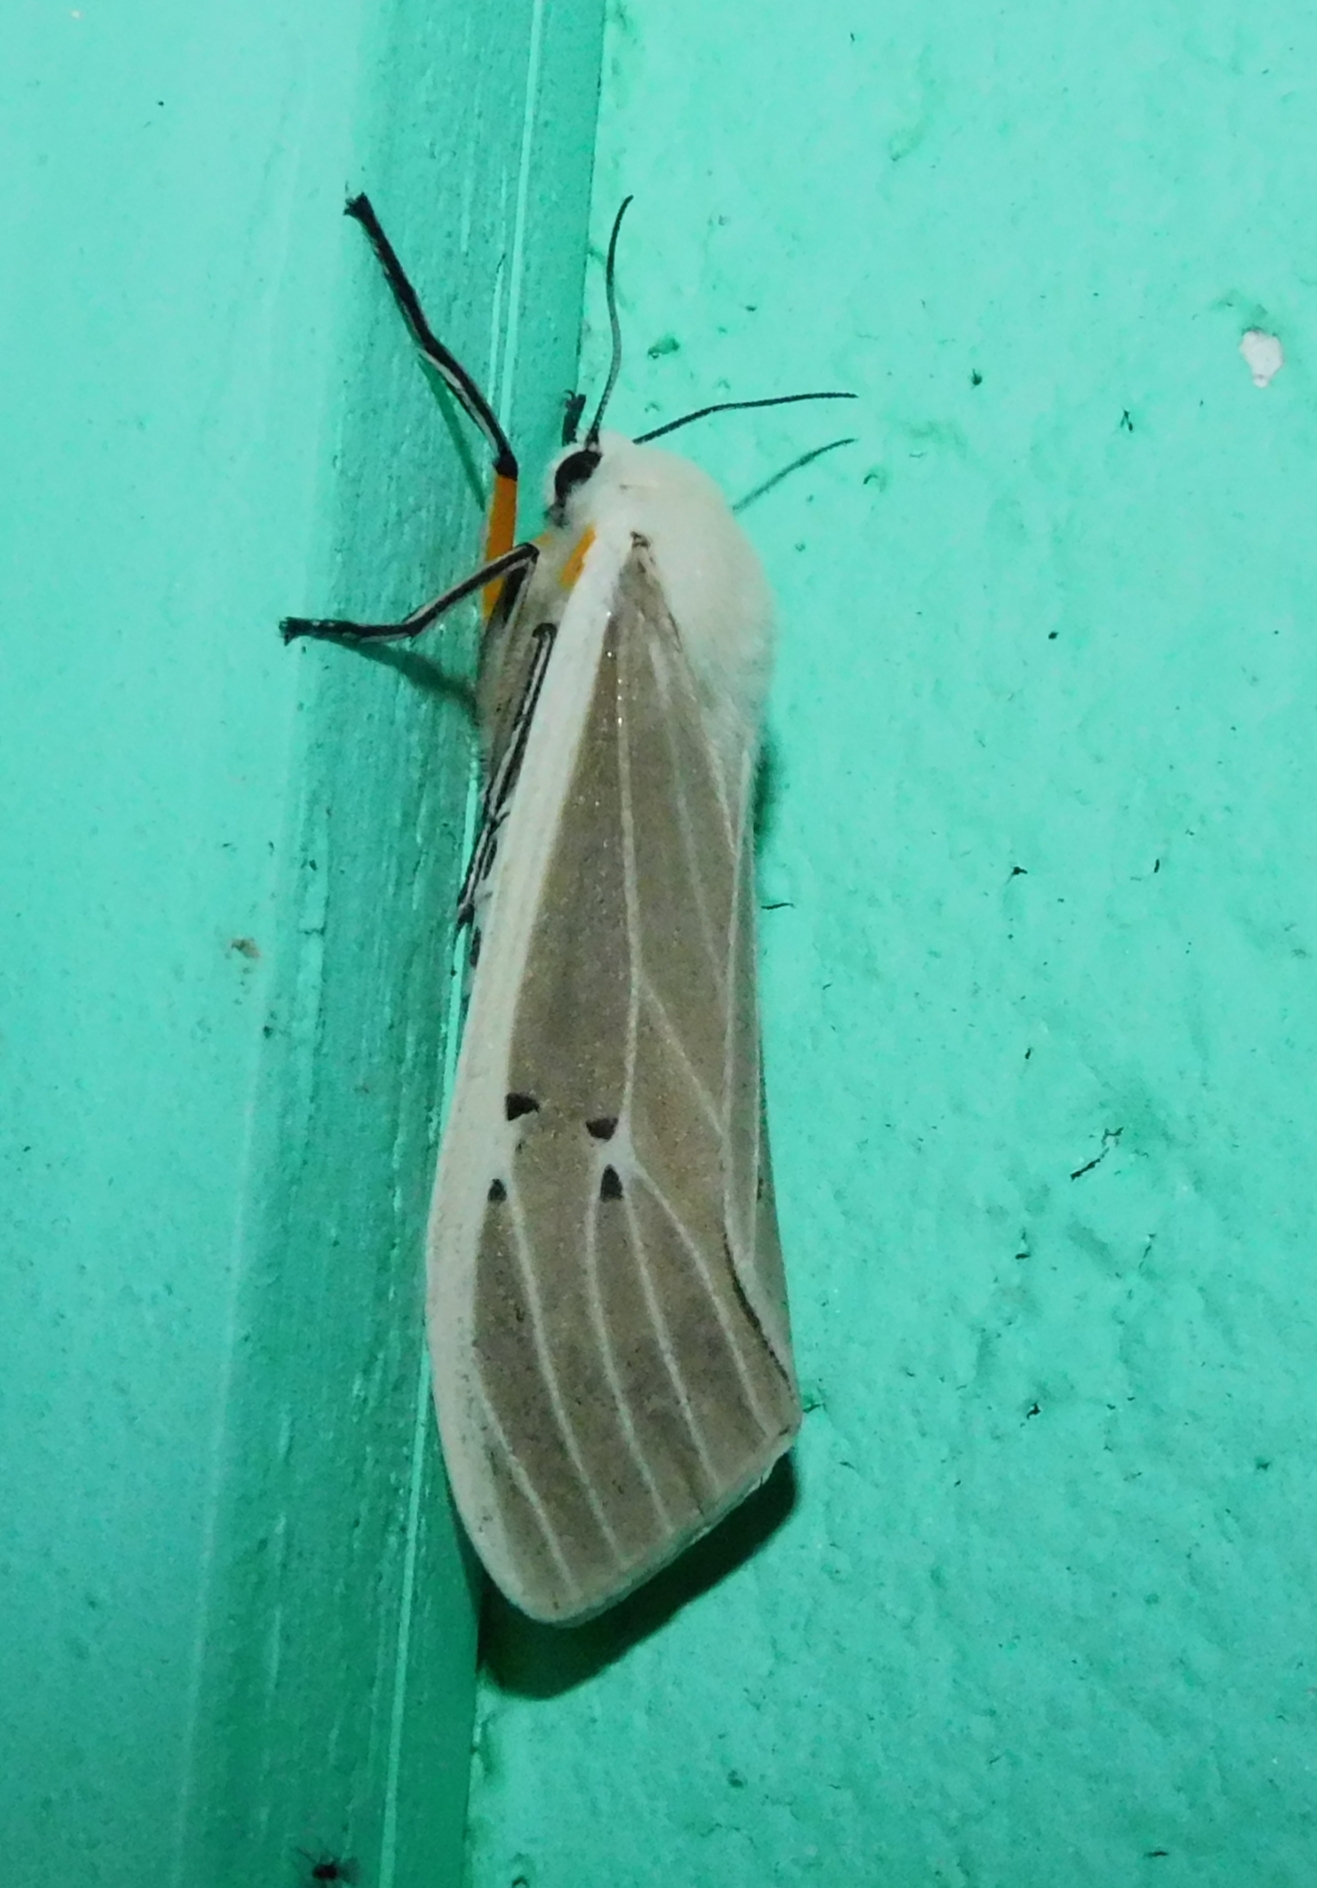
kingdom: Animalia
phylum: Arthropoda
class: Insecta
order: Lepidoptera
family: Erebidae
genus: Creatonotos
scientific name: Creatonotos transiens
